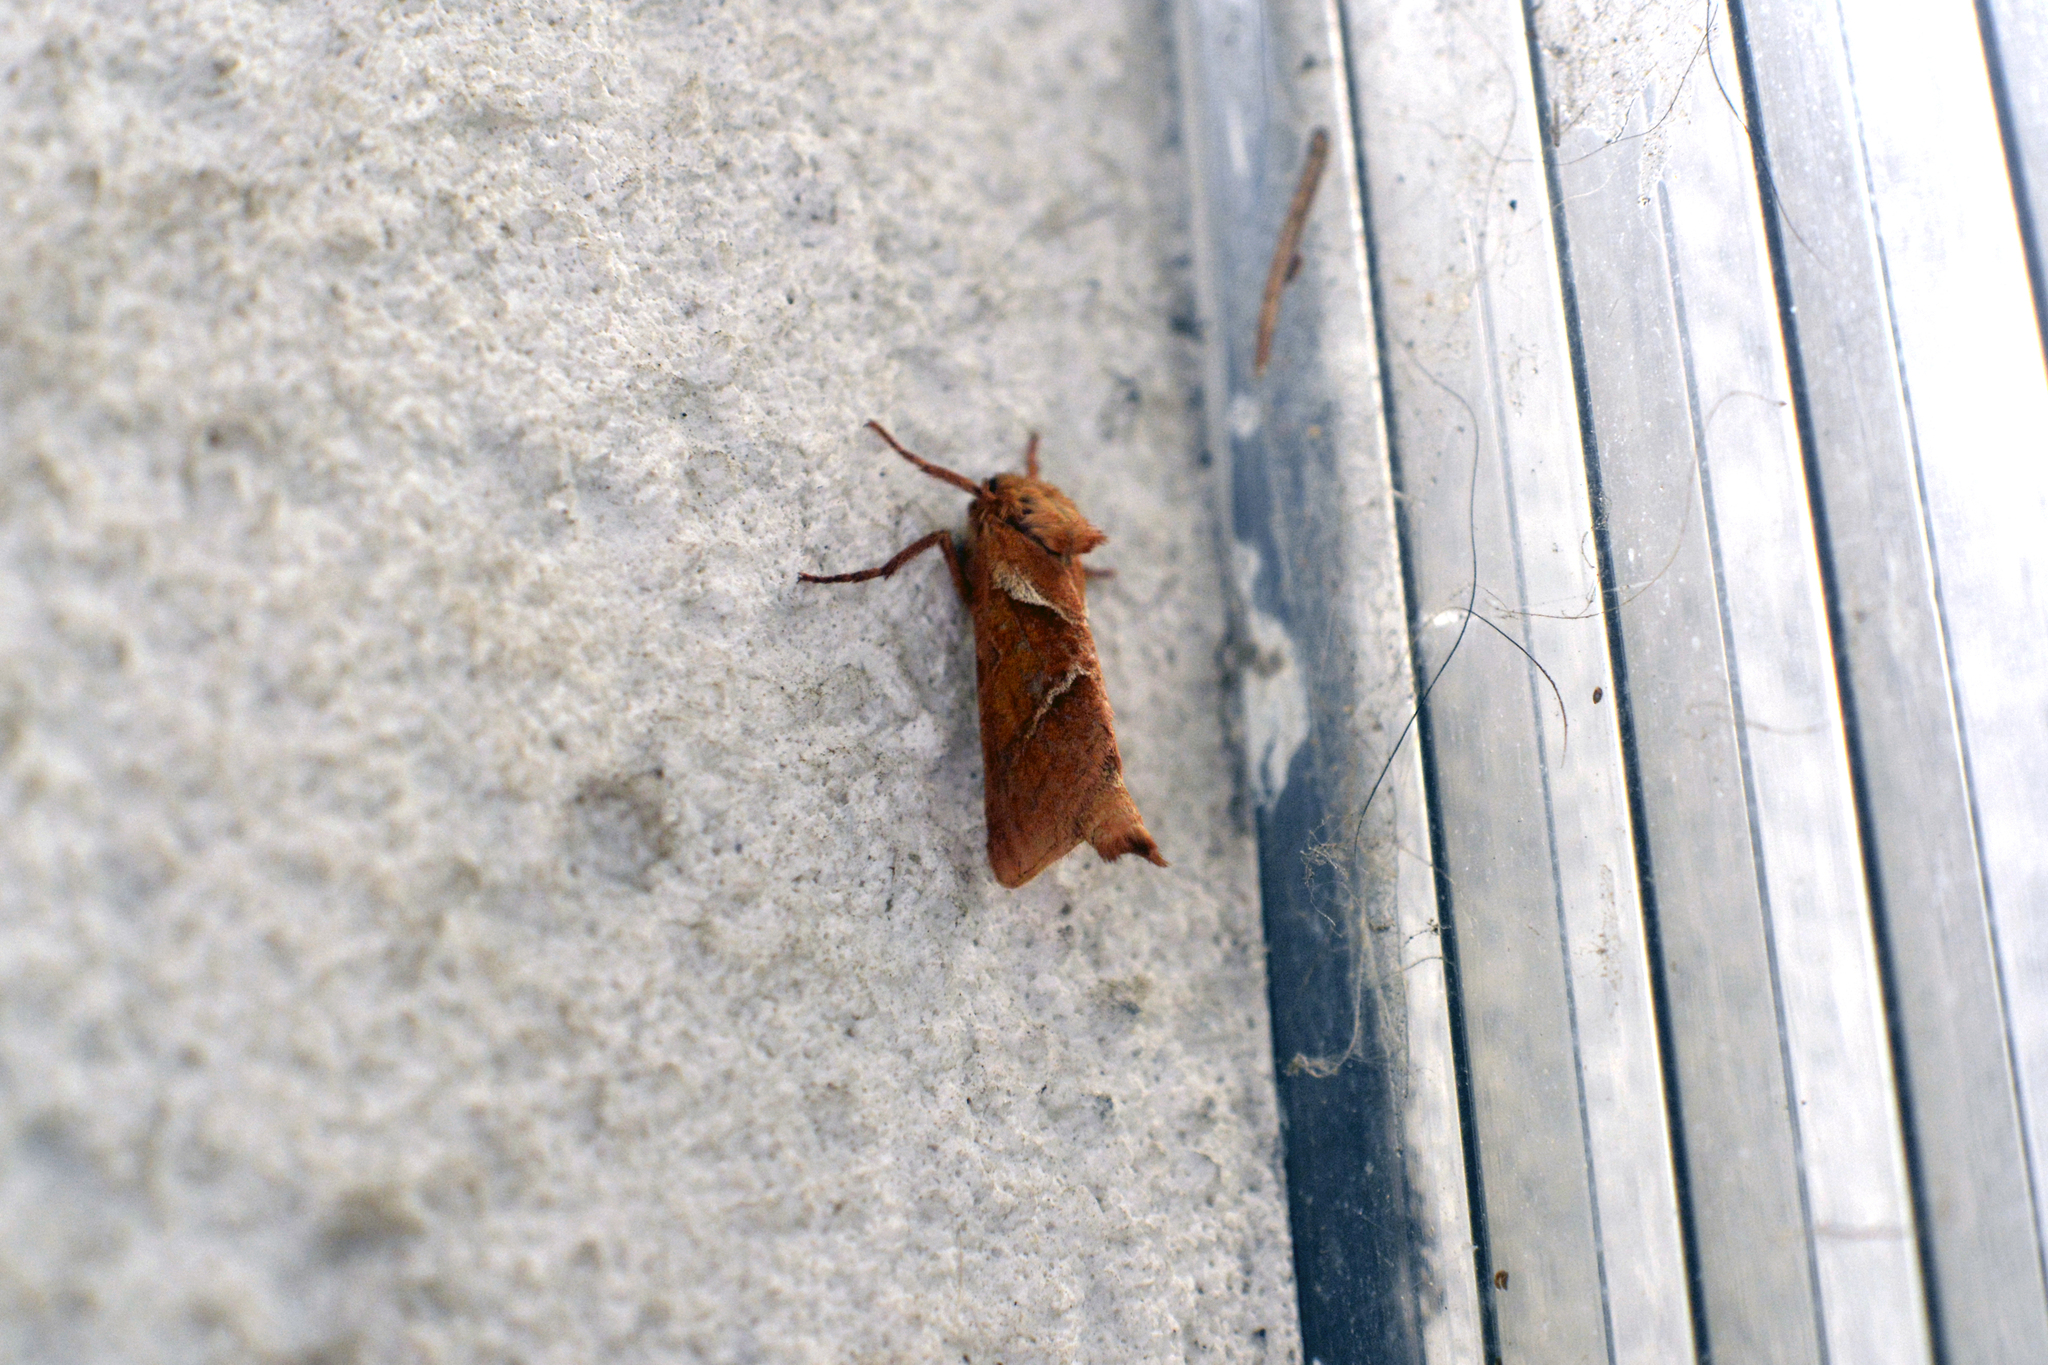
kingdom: Animalia
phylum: Arthropoda
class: Insecta
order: Lepidoptera
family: Hepialidae
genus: Triodia
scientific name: Triodia sylvina
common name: Orange swift
